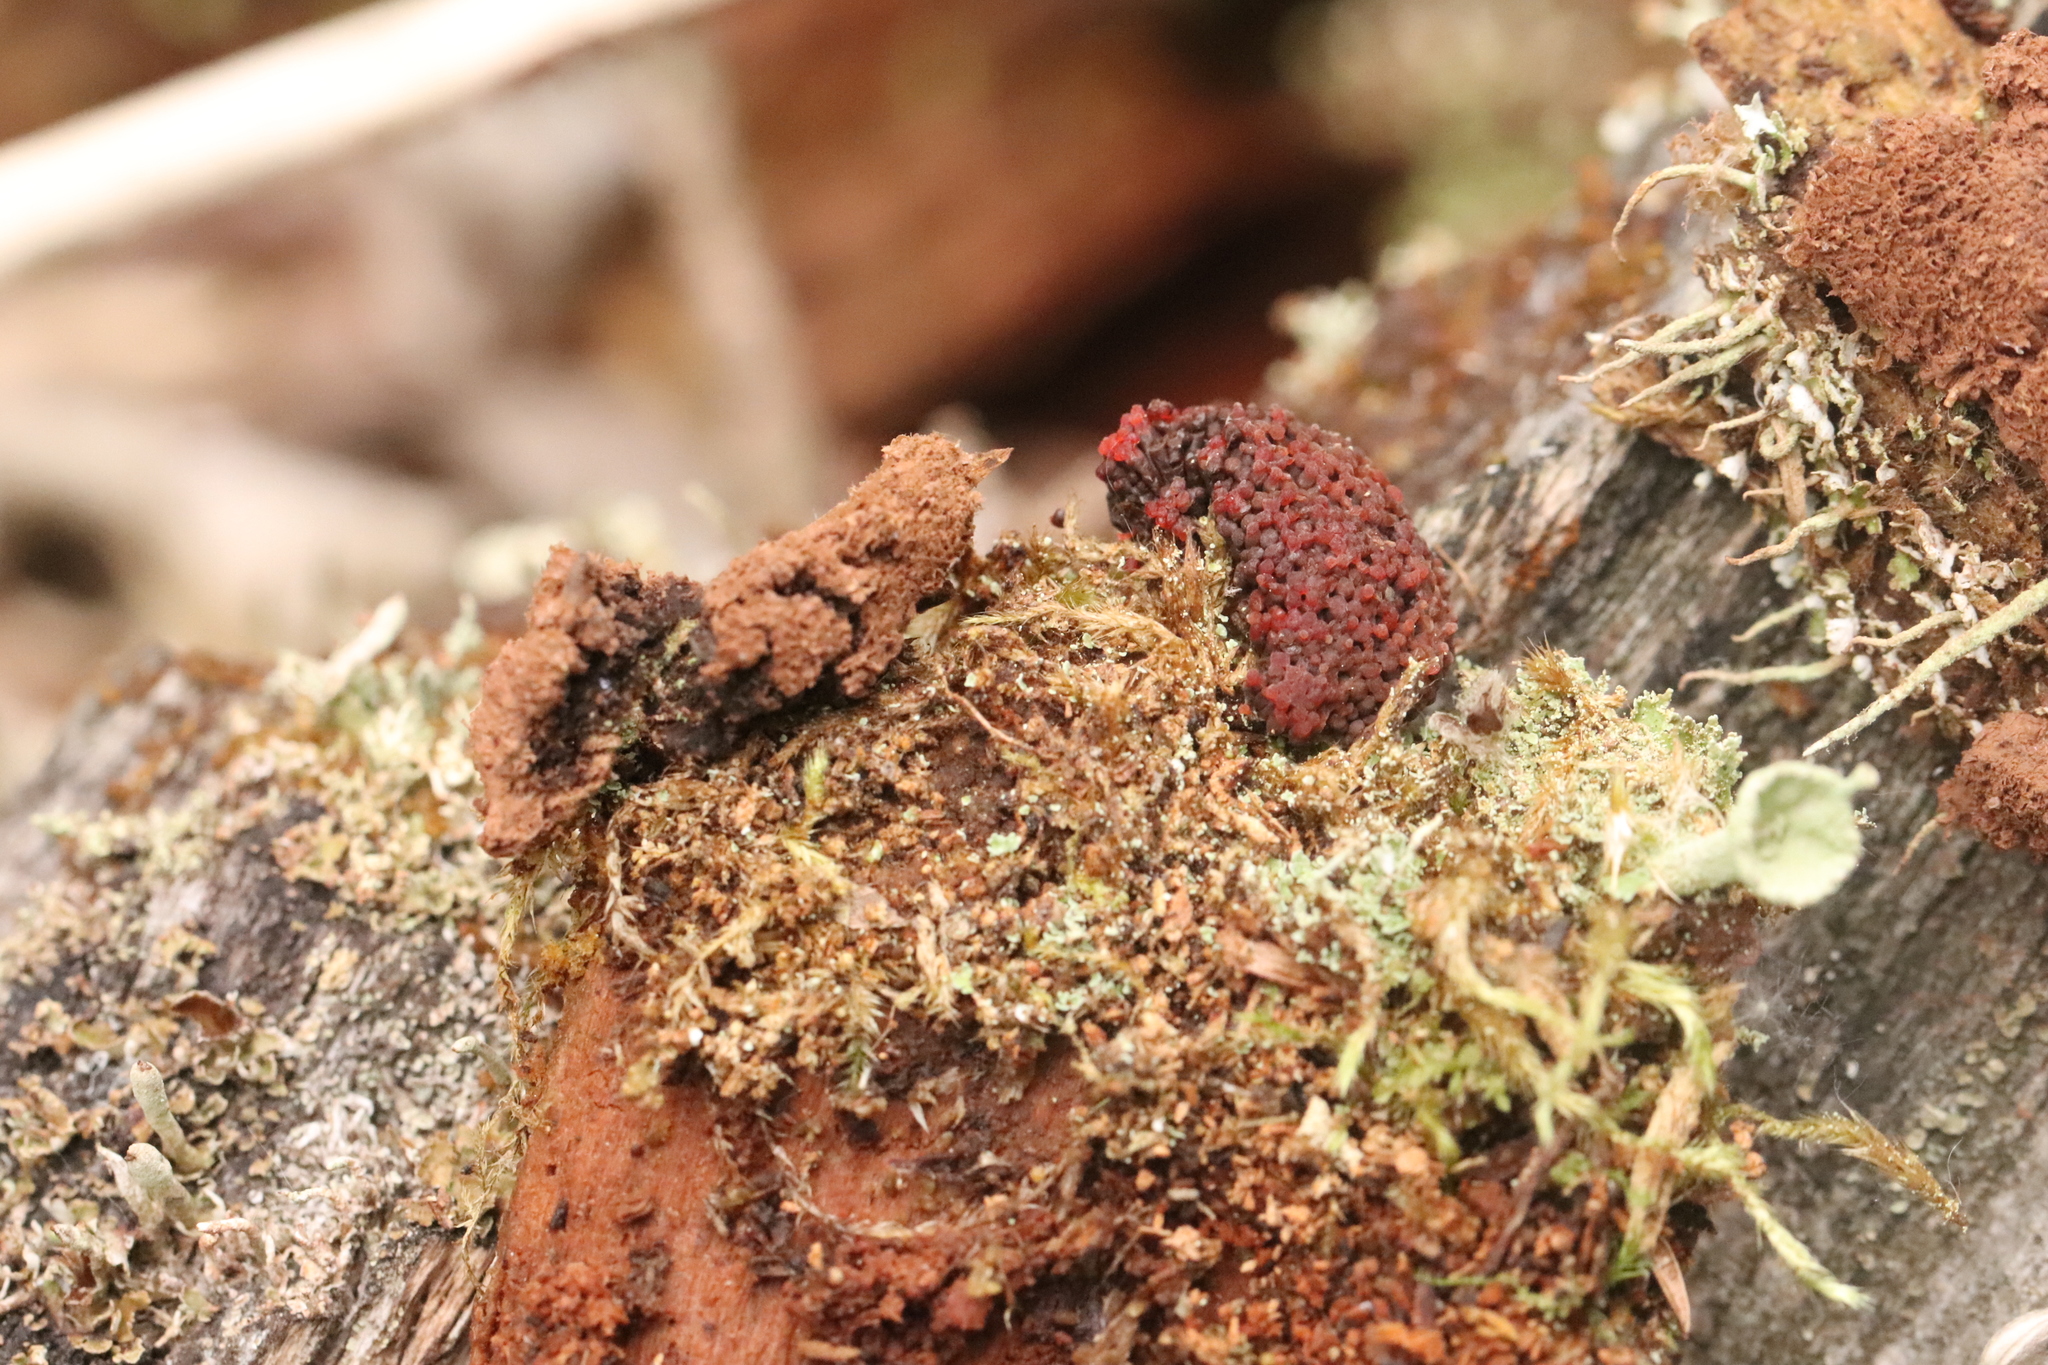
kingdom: Protozoa
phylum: Mycetozoa
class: Myxomycetes
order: Cribrariales
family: Tubiferaceae
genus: Tubifera
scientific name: Tubifera ferruginosa
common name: Red raspberry slime mold
